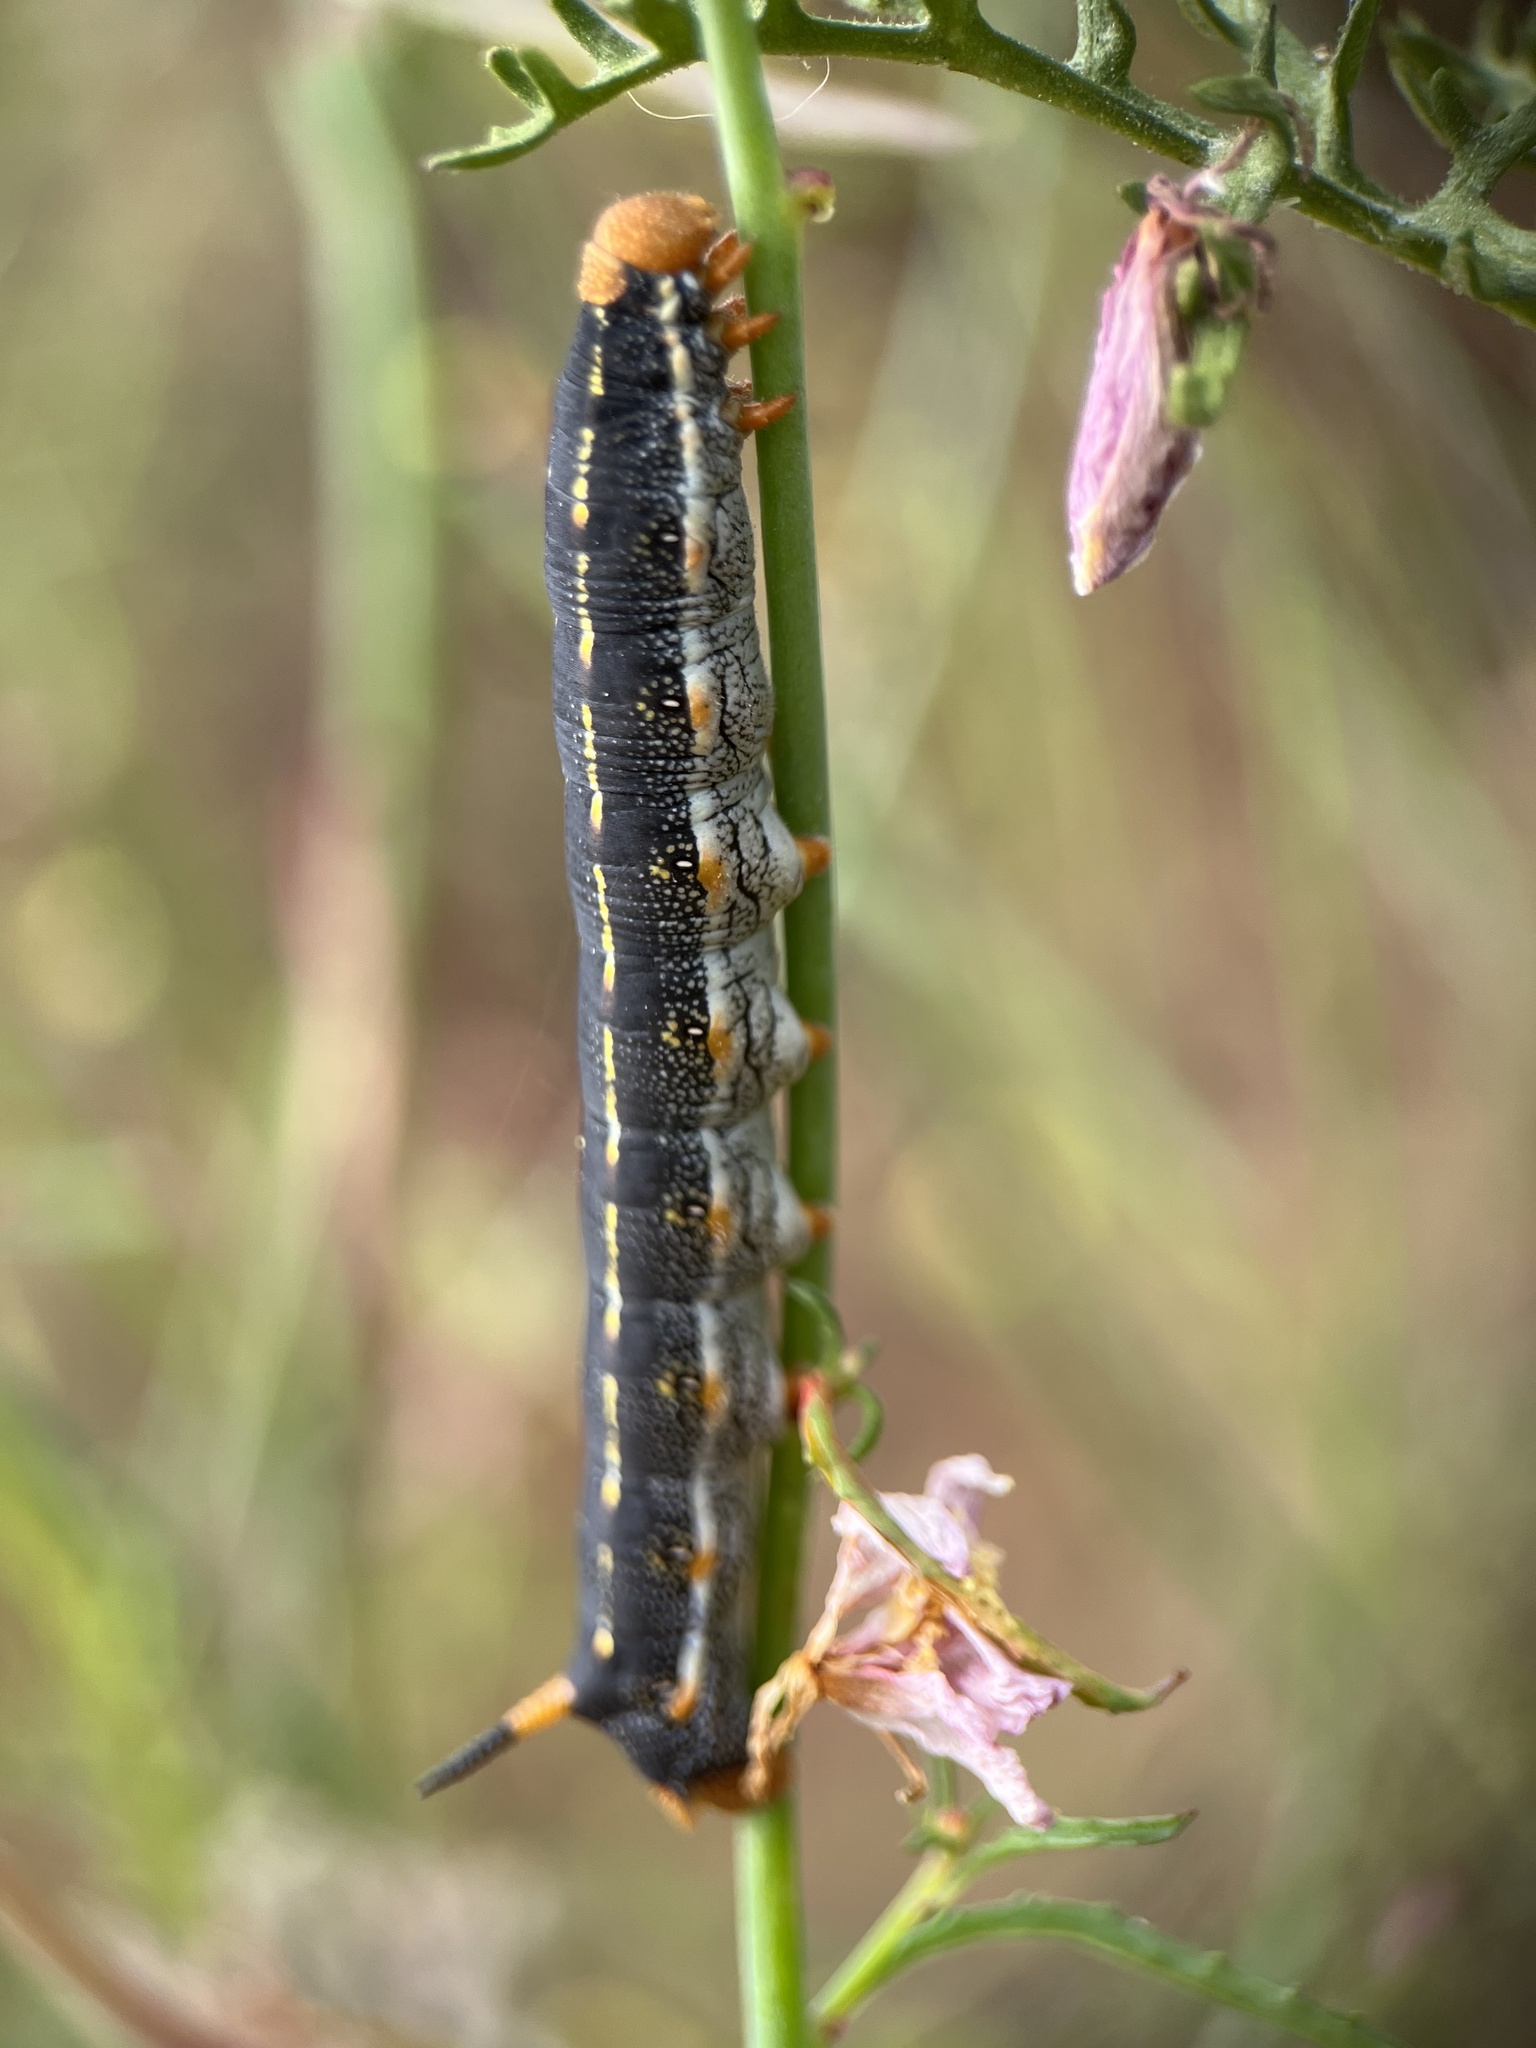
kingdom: Animalia
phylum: Arthropoda
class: Insecta
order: Lepidoptera
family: Sphingidae
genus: Hyles
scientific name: Hyles lineata
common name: White-lined sphinx
